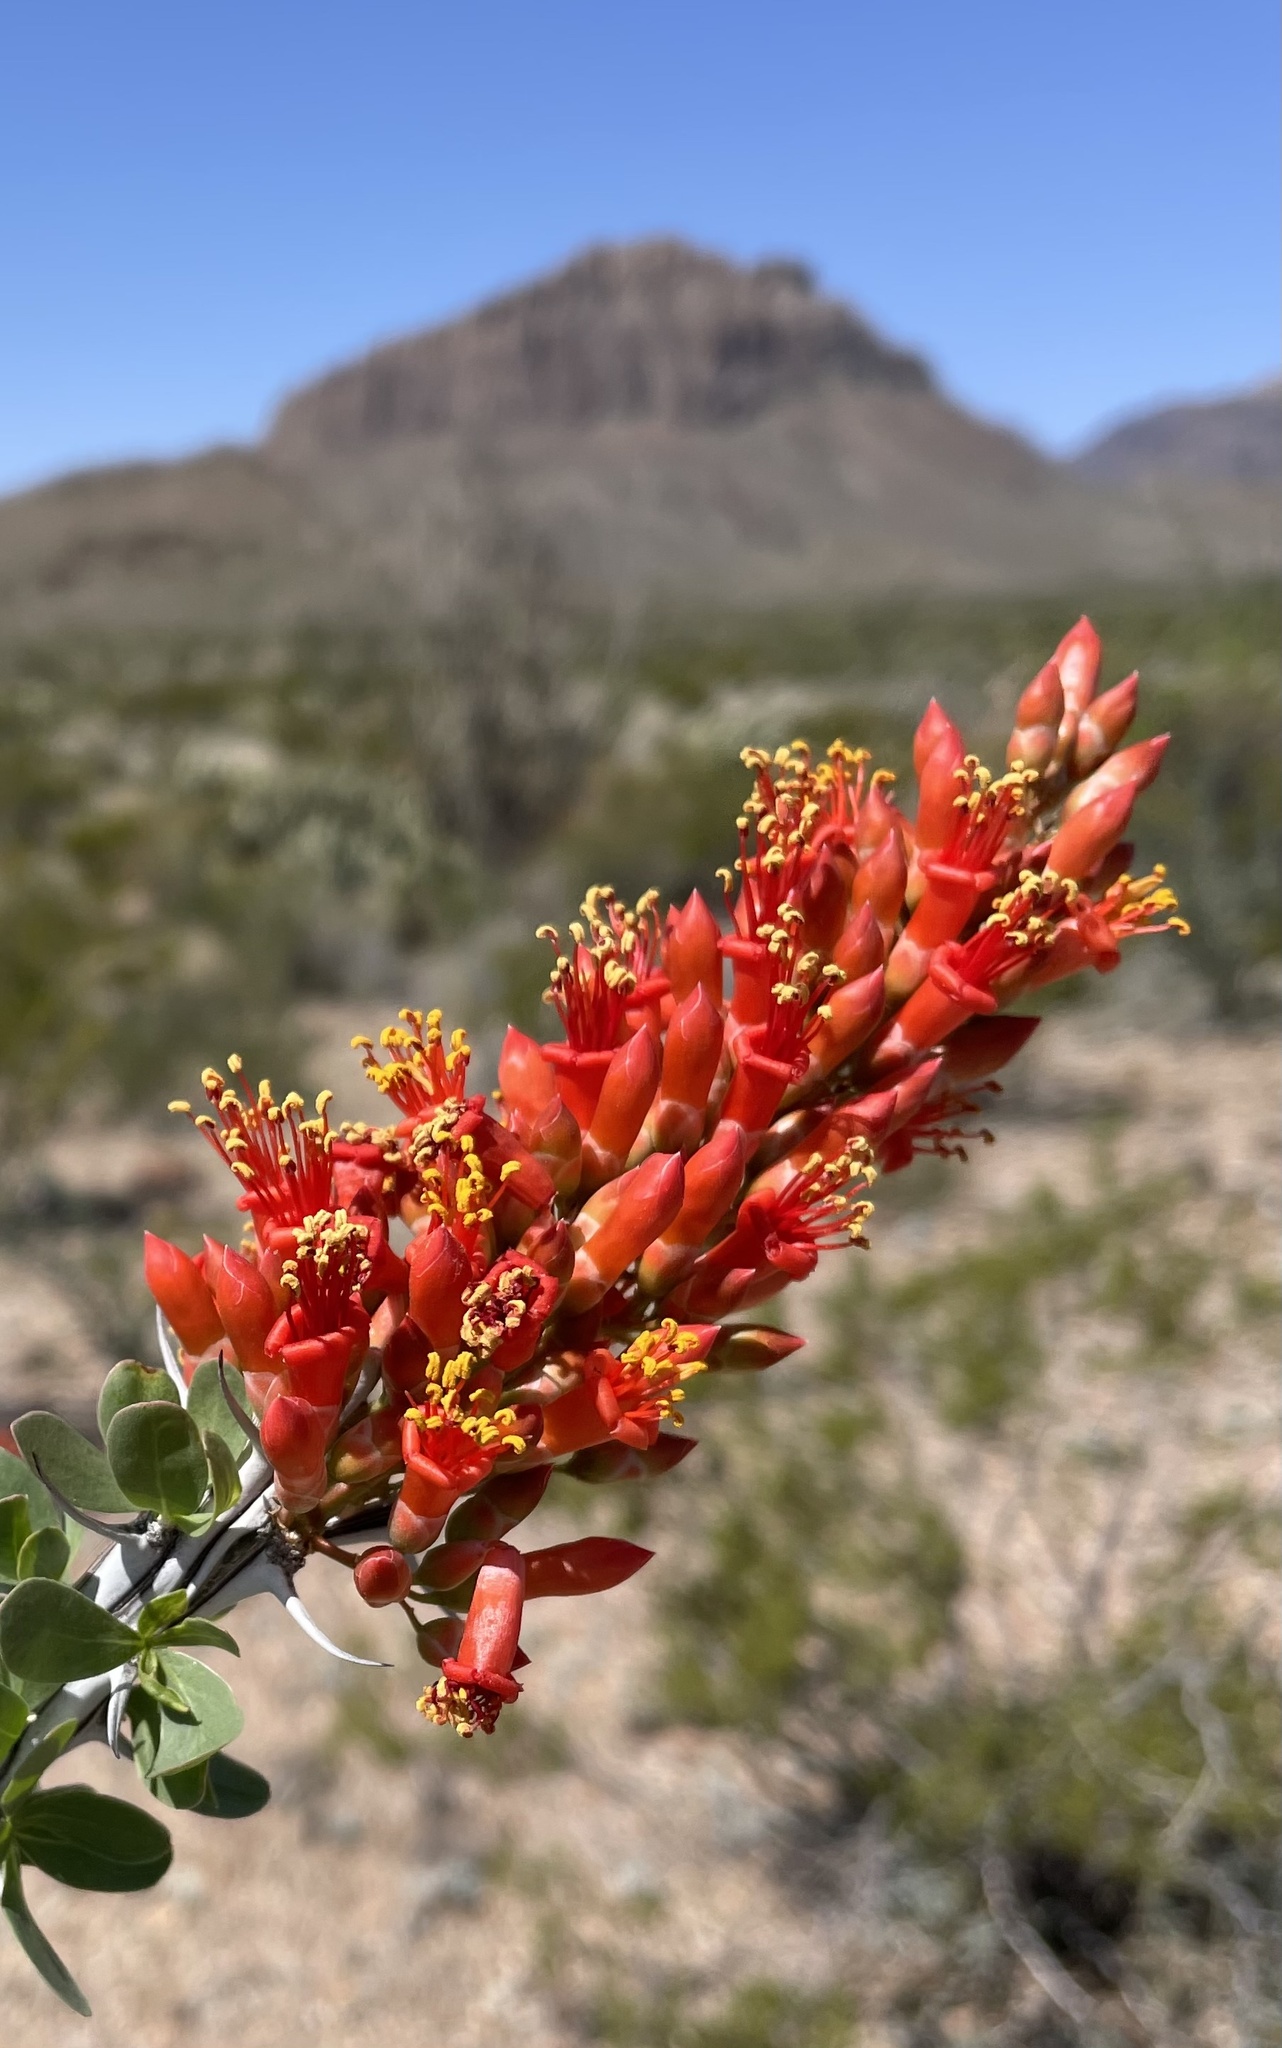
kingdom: Plantae
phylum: Tracheophyta
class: Magnoliopsida
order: Ericales
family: Fouquieriaceae
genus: Fouquieria
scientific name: Fouquieria splendens
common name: Vine-cactus
